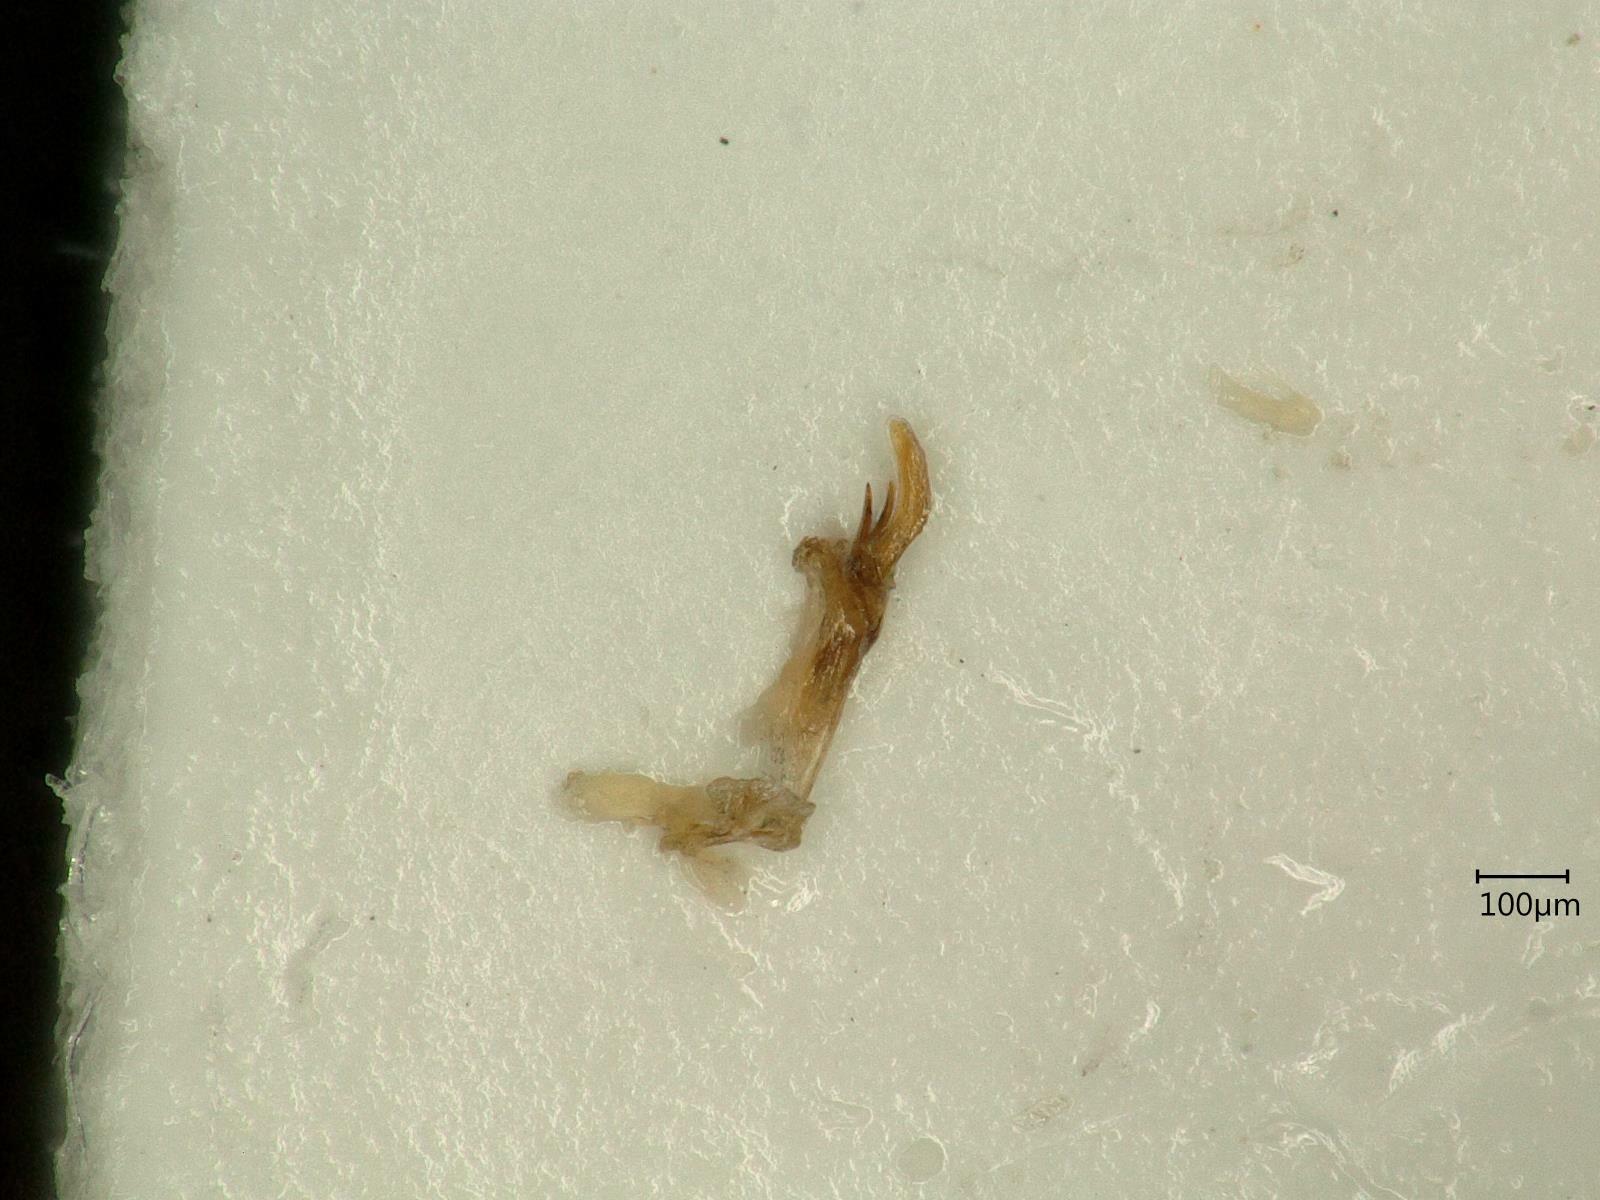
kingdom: Animalia
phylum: Arthropoda
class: Insecta
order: Hemiptera
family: Cicadellidae
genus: Kybos
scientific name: Kybos strobli
